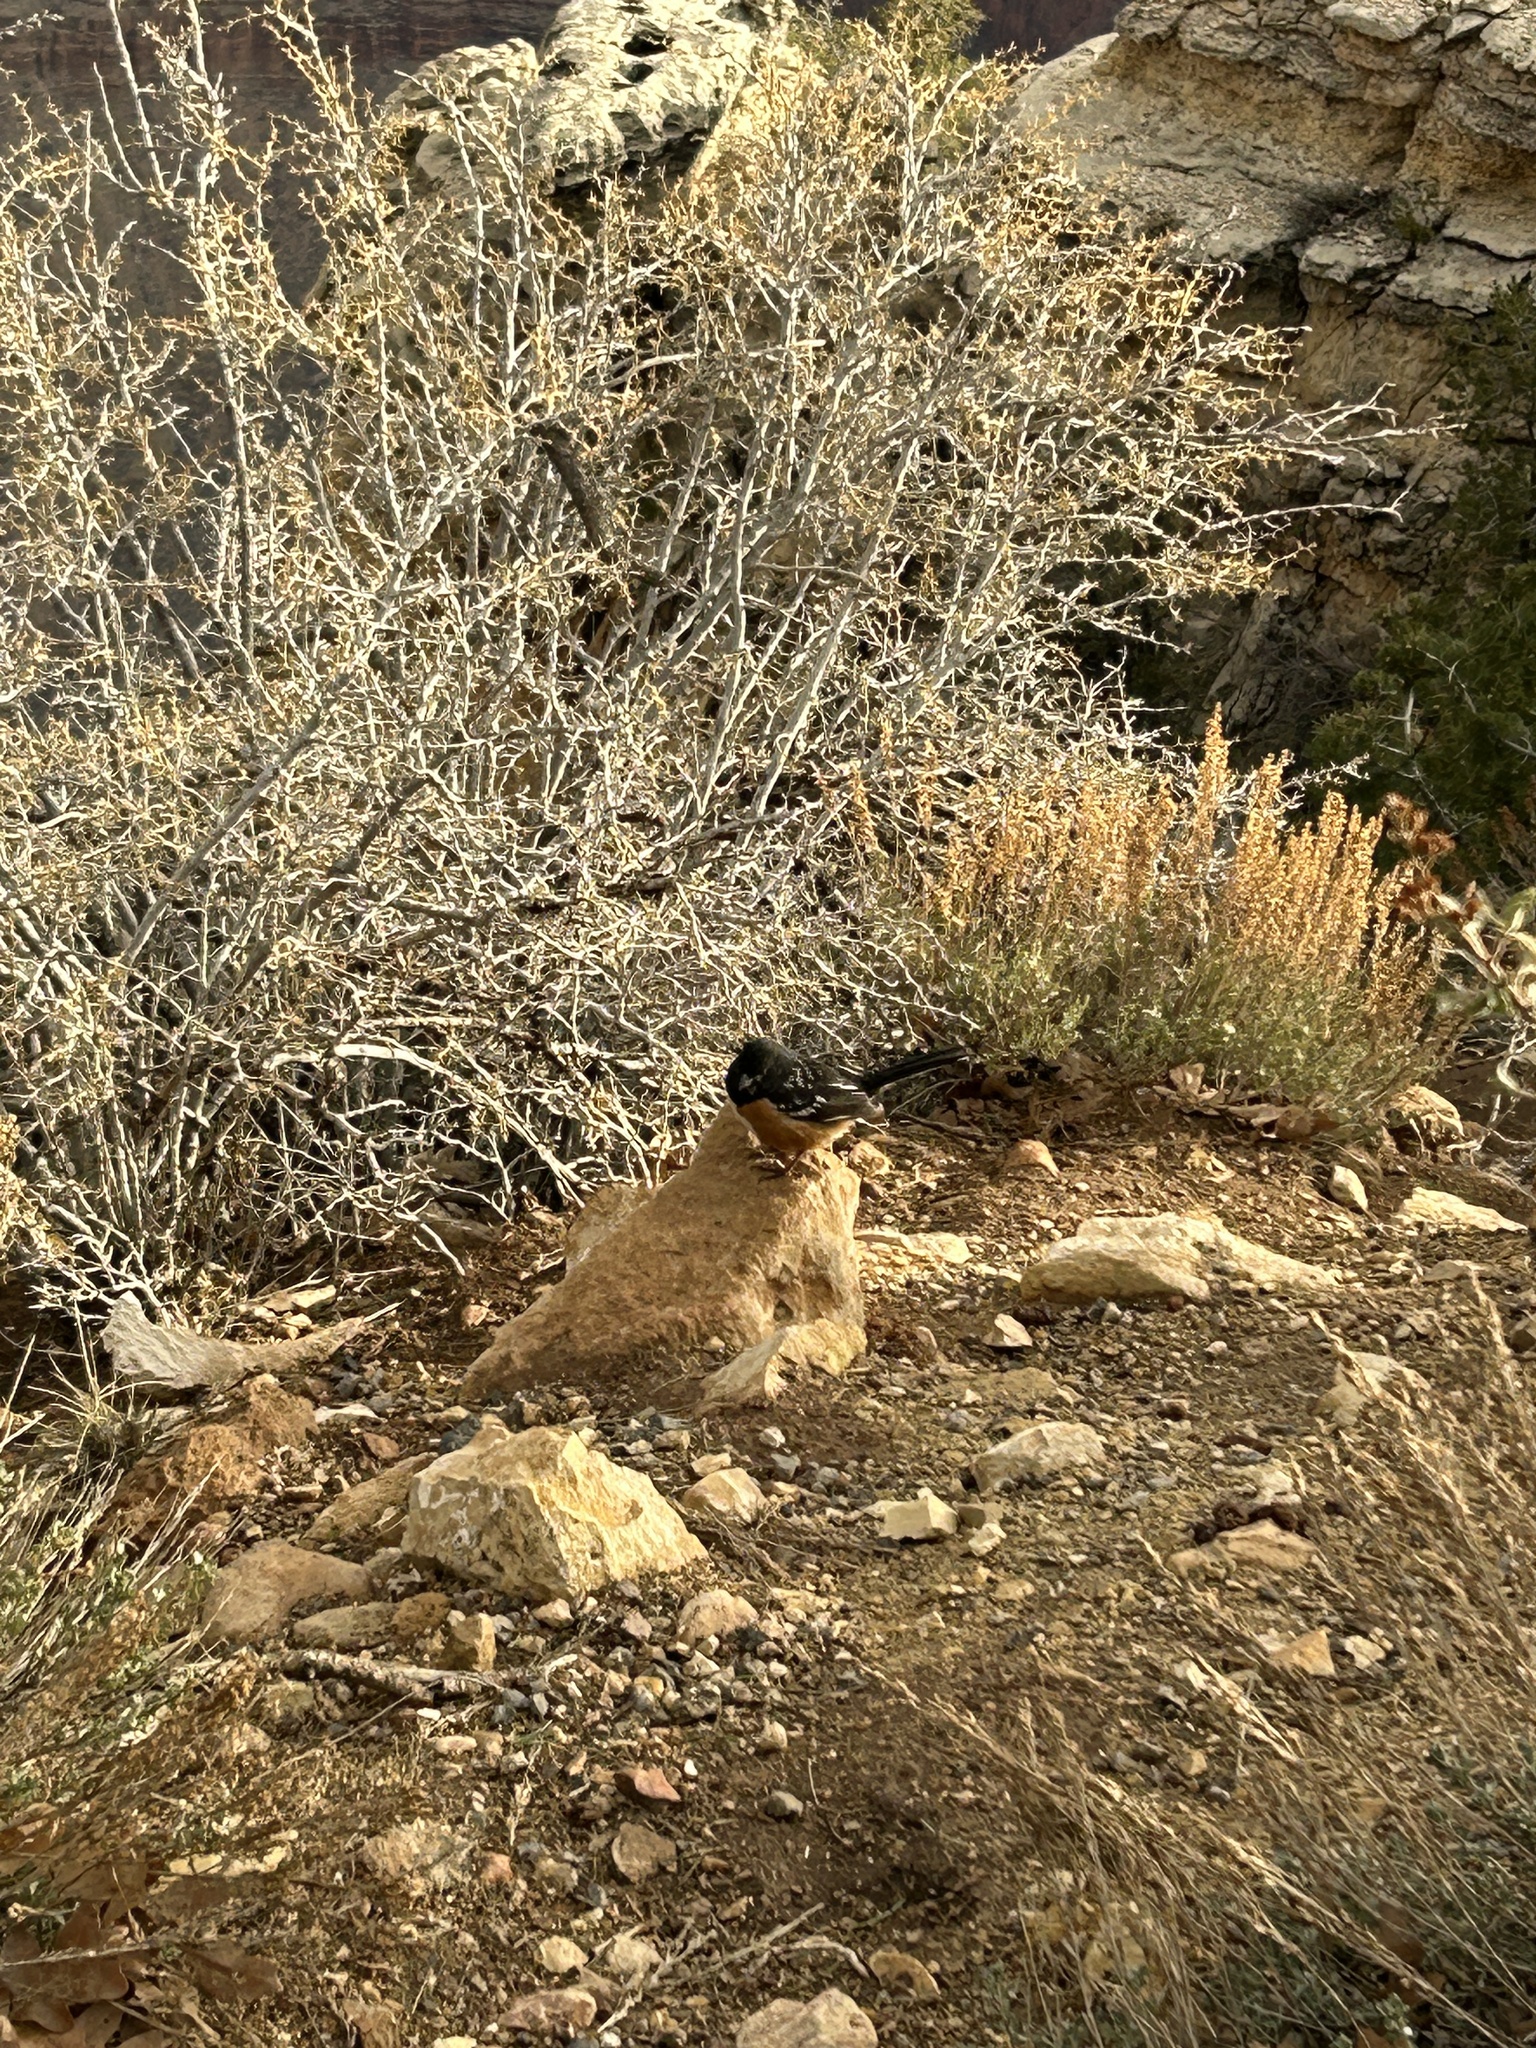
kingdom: Animalia
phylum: Chordata
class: Aves
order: Passeriformes
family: Passerellidae
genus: Pipilo
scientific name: Pipilo maculatus
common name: Spotted towhee
